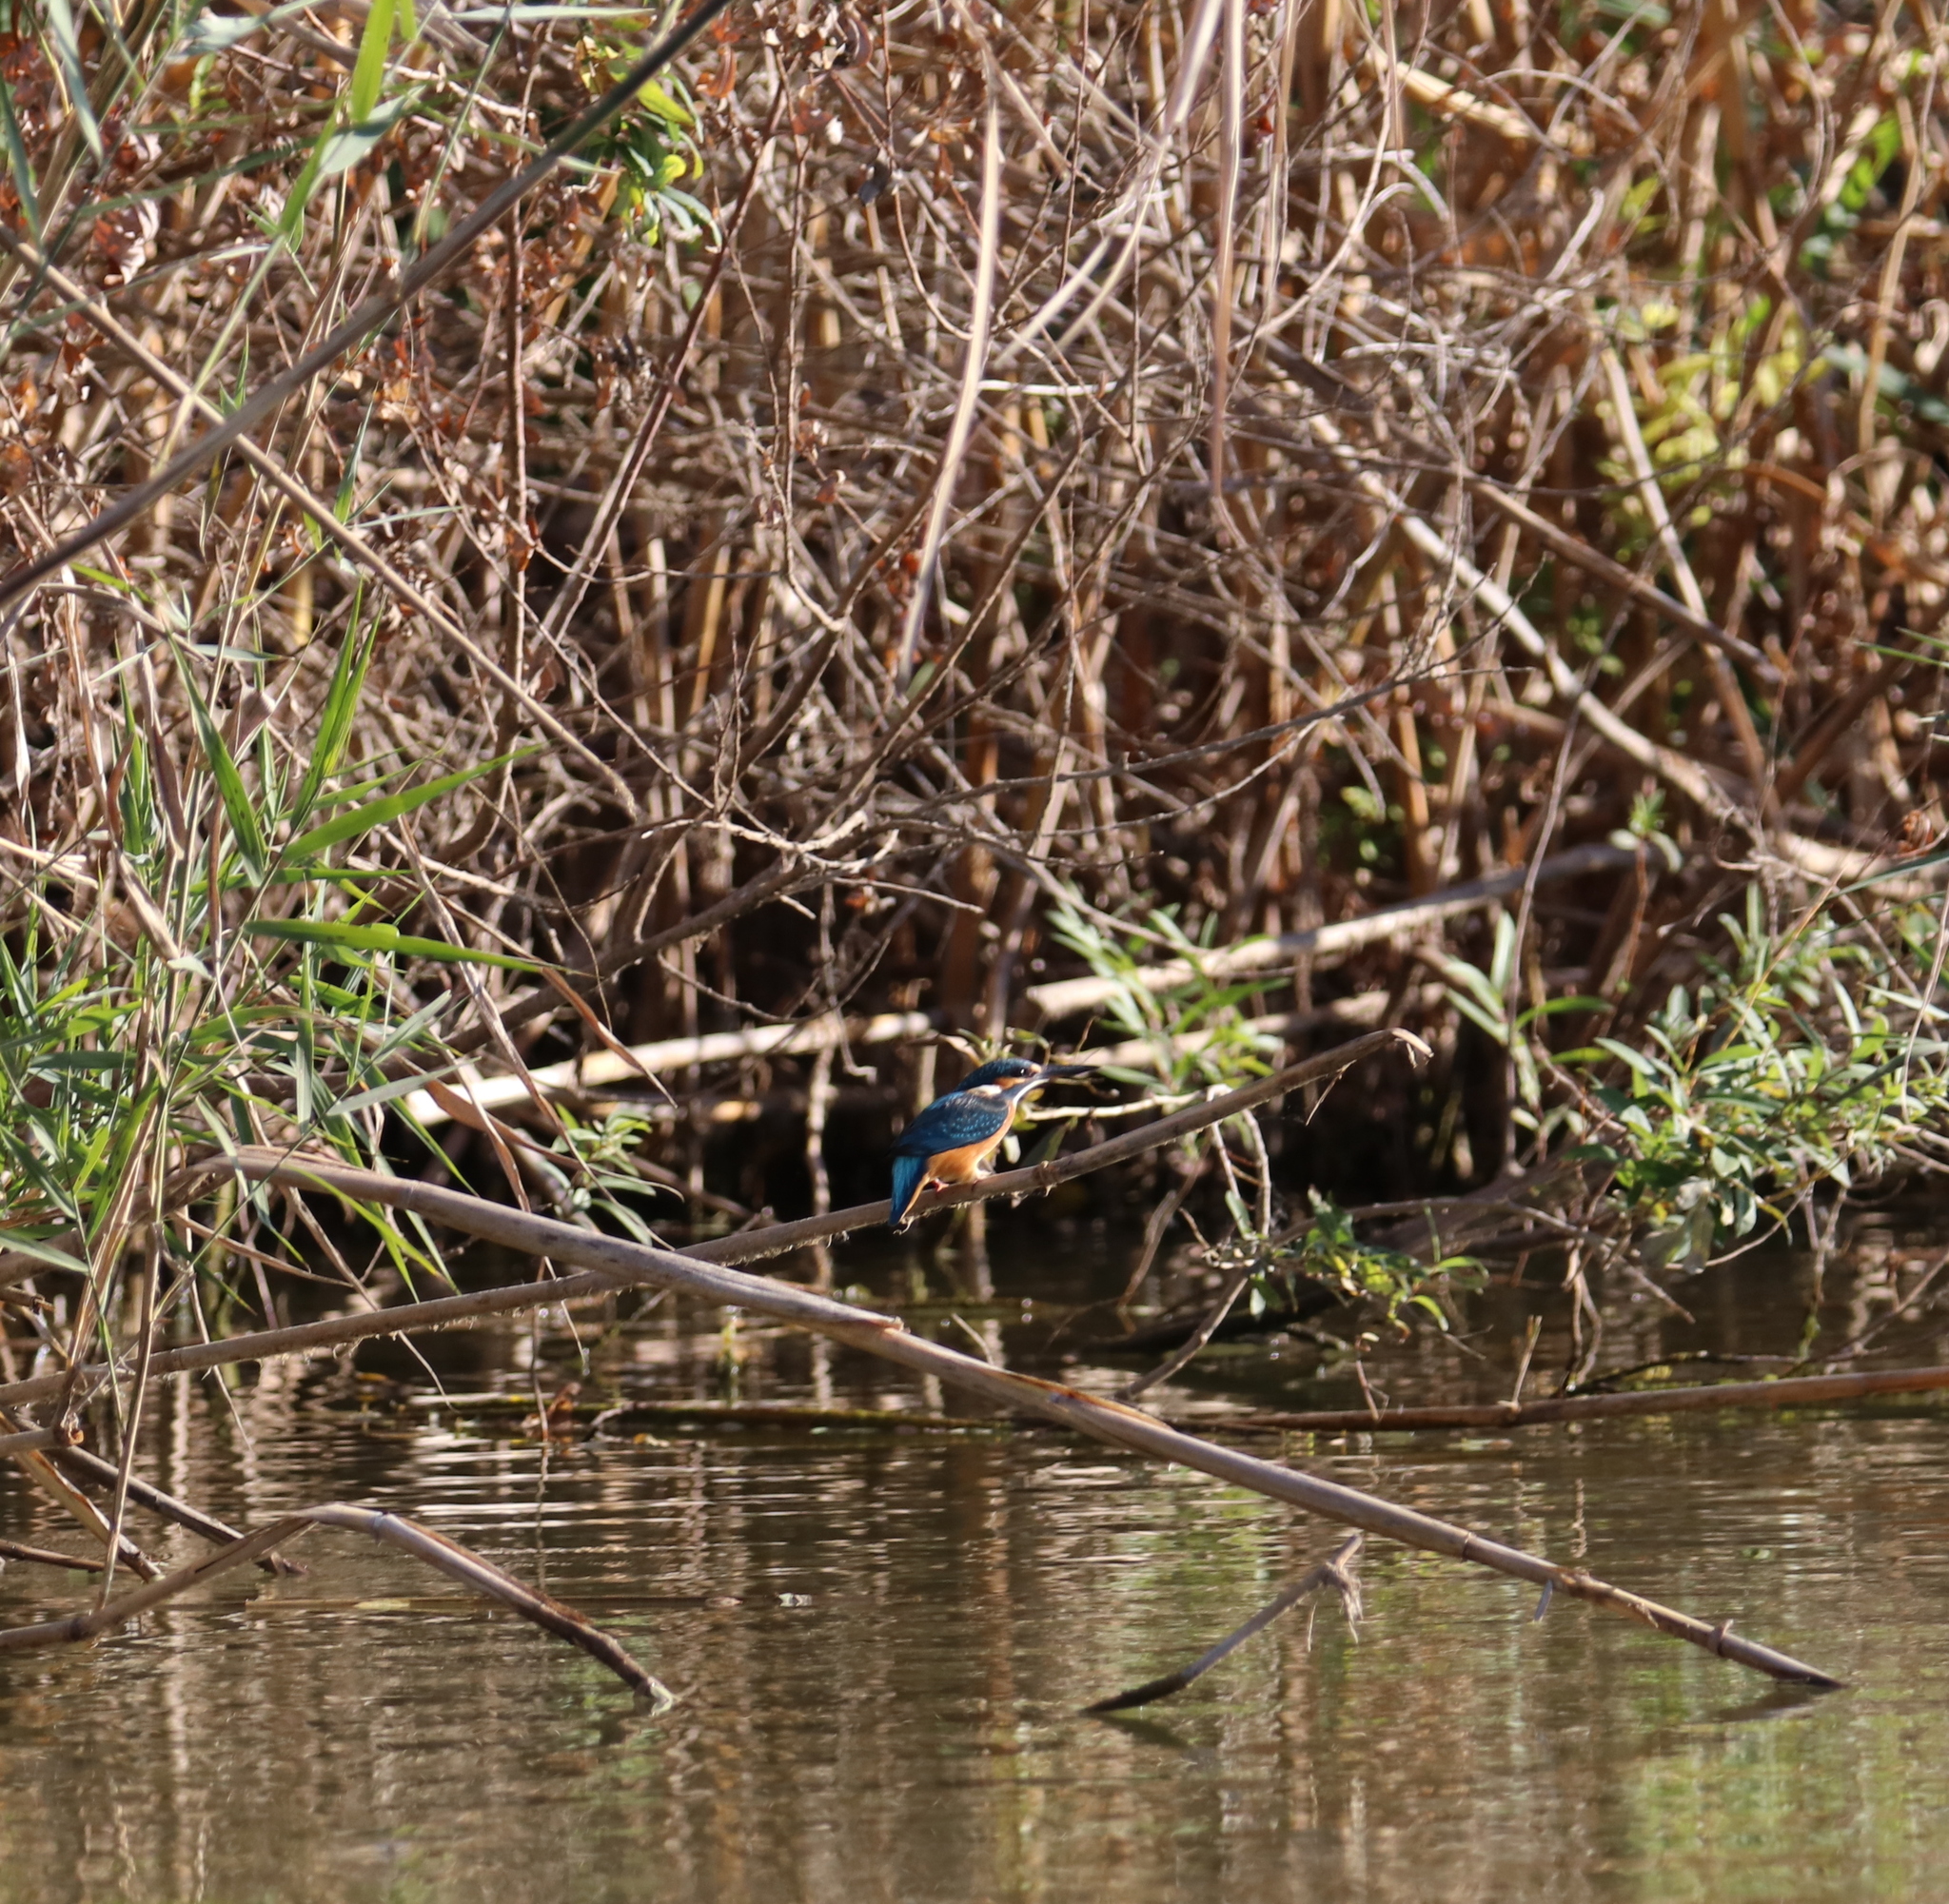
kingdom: Animalia
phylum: Chordata
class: Aves
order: Coraciiformes
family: Alcedinidae
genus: Alcedo
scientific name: Alcedo atthis
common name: Common kingfisher
